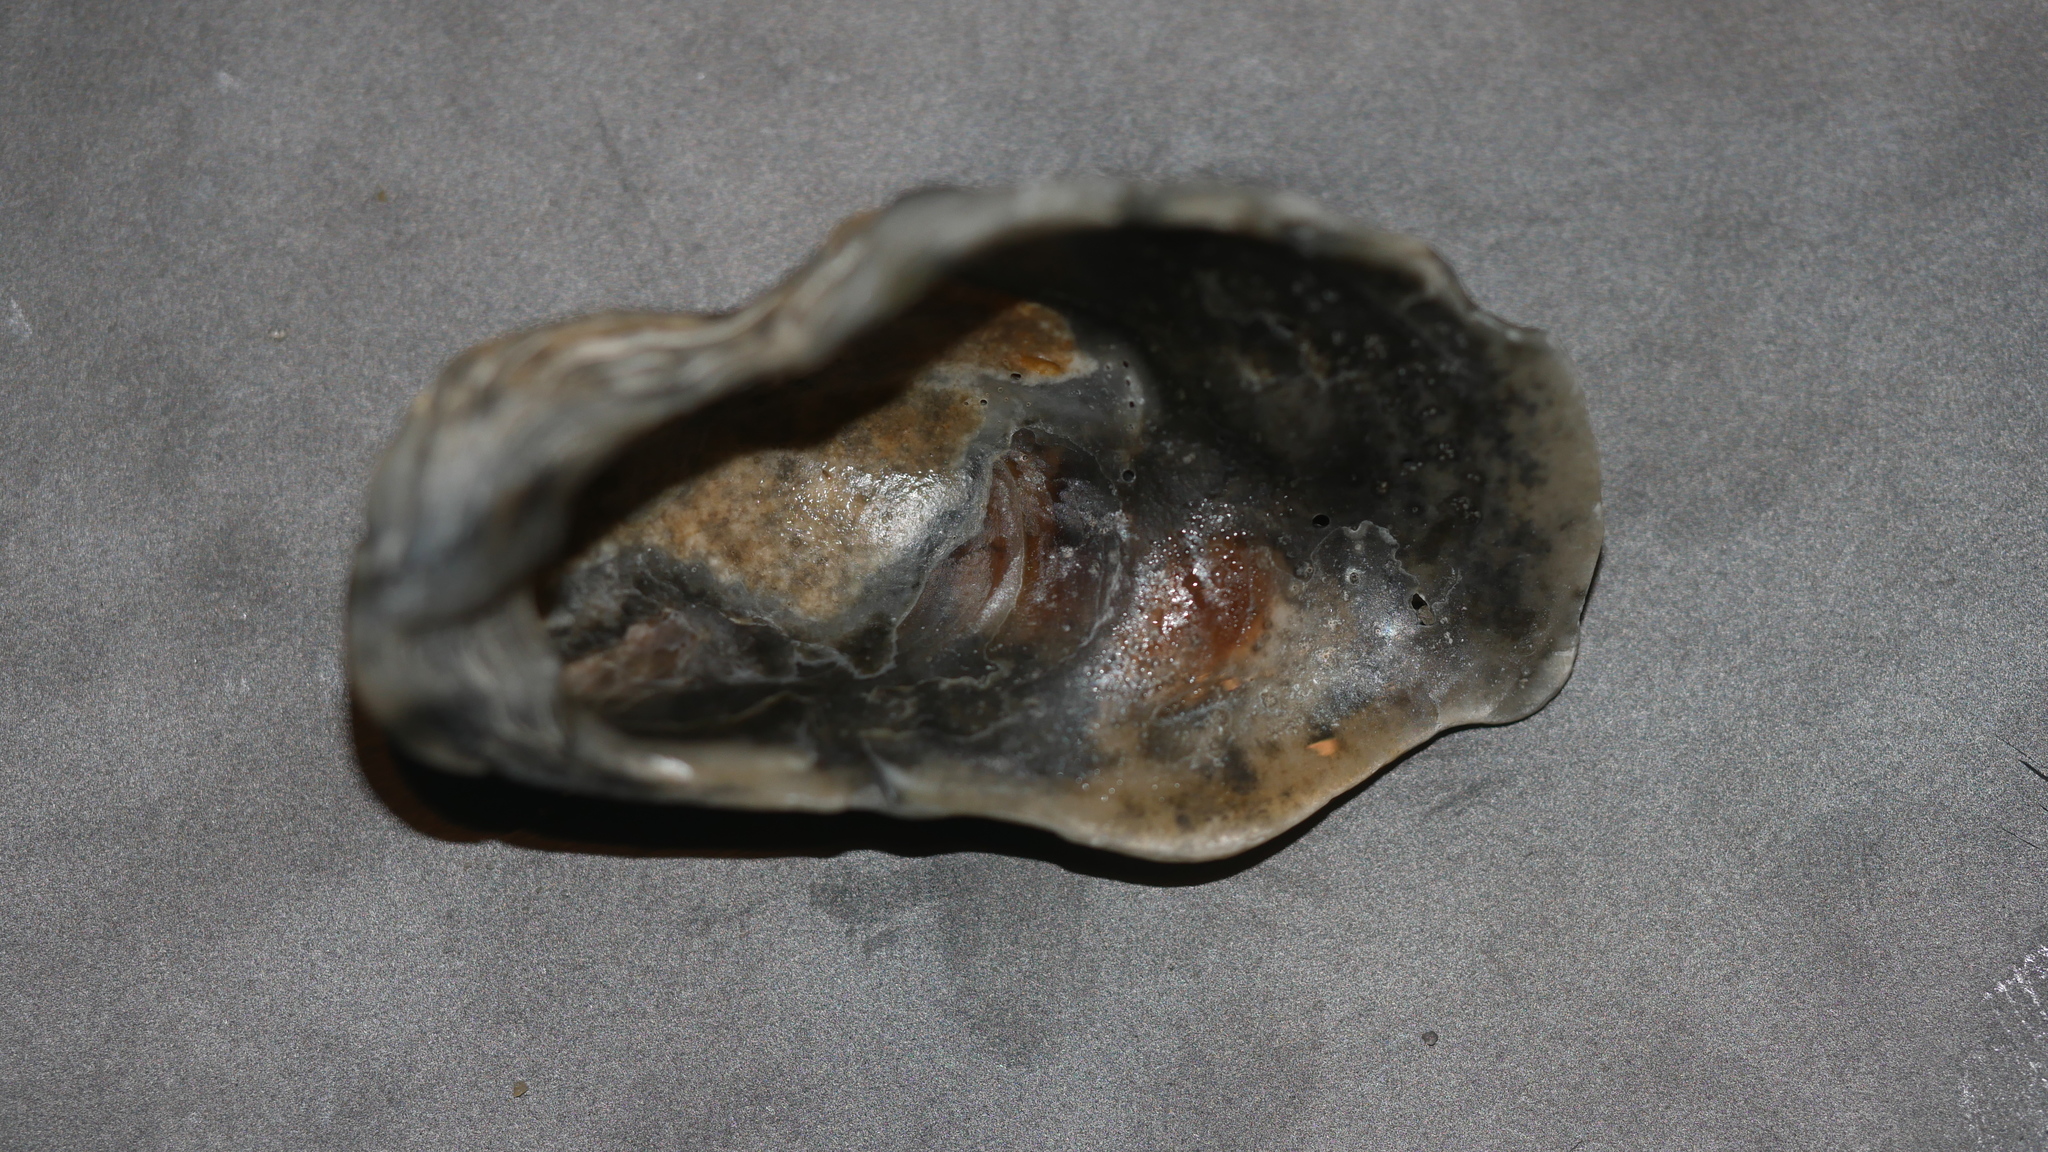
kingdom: Animalia
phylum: Mollusca
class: Bivalvia
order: Ostreida
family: Ostreidae
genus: Crassostrea
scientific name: Crassostrea virginica
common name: American oyster
